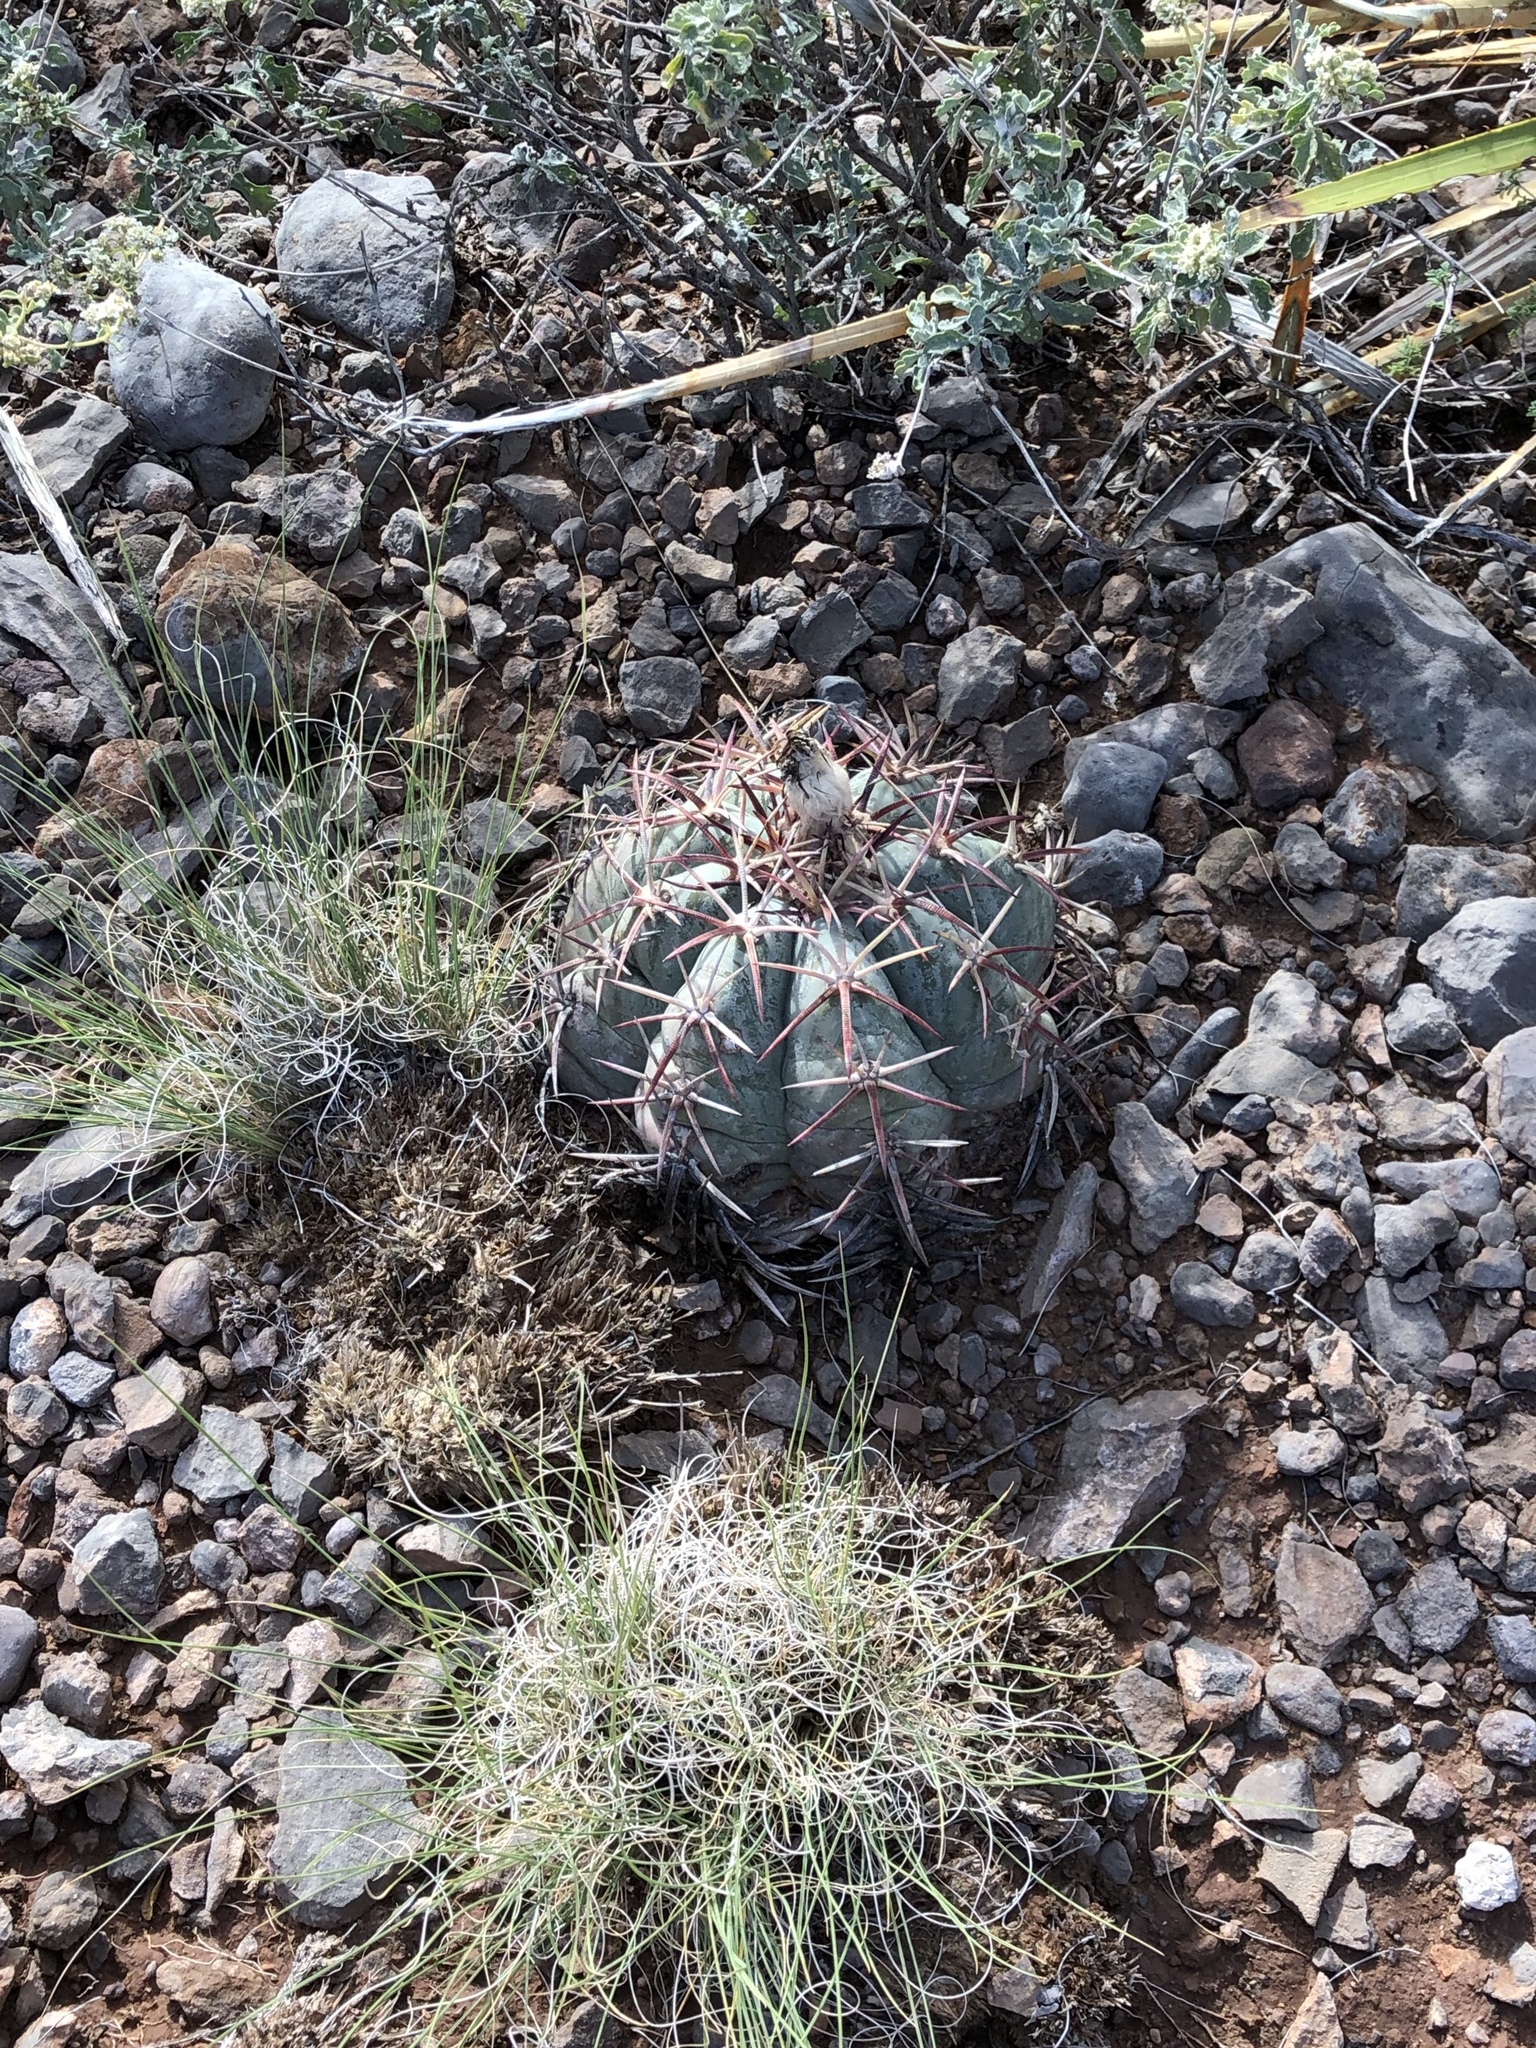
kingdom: Plantae
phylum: Tracheophyta
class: Magnoliopsida
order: Caryophyllales
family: Cactaceae
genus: Echinocactus
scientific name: Echinocactus horizonthalonius
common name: Devilshead
